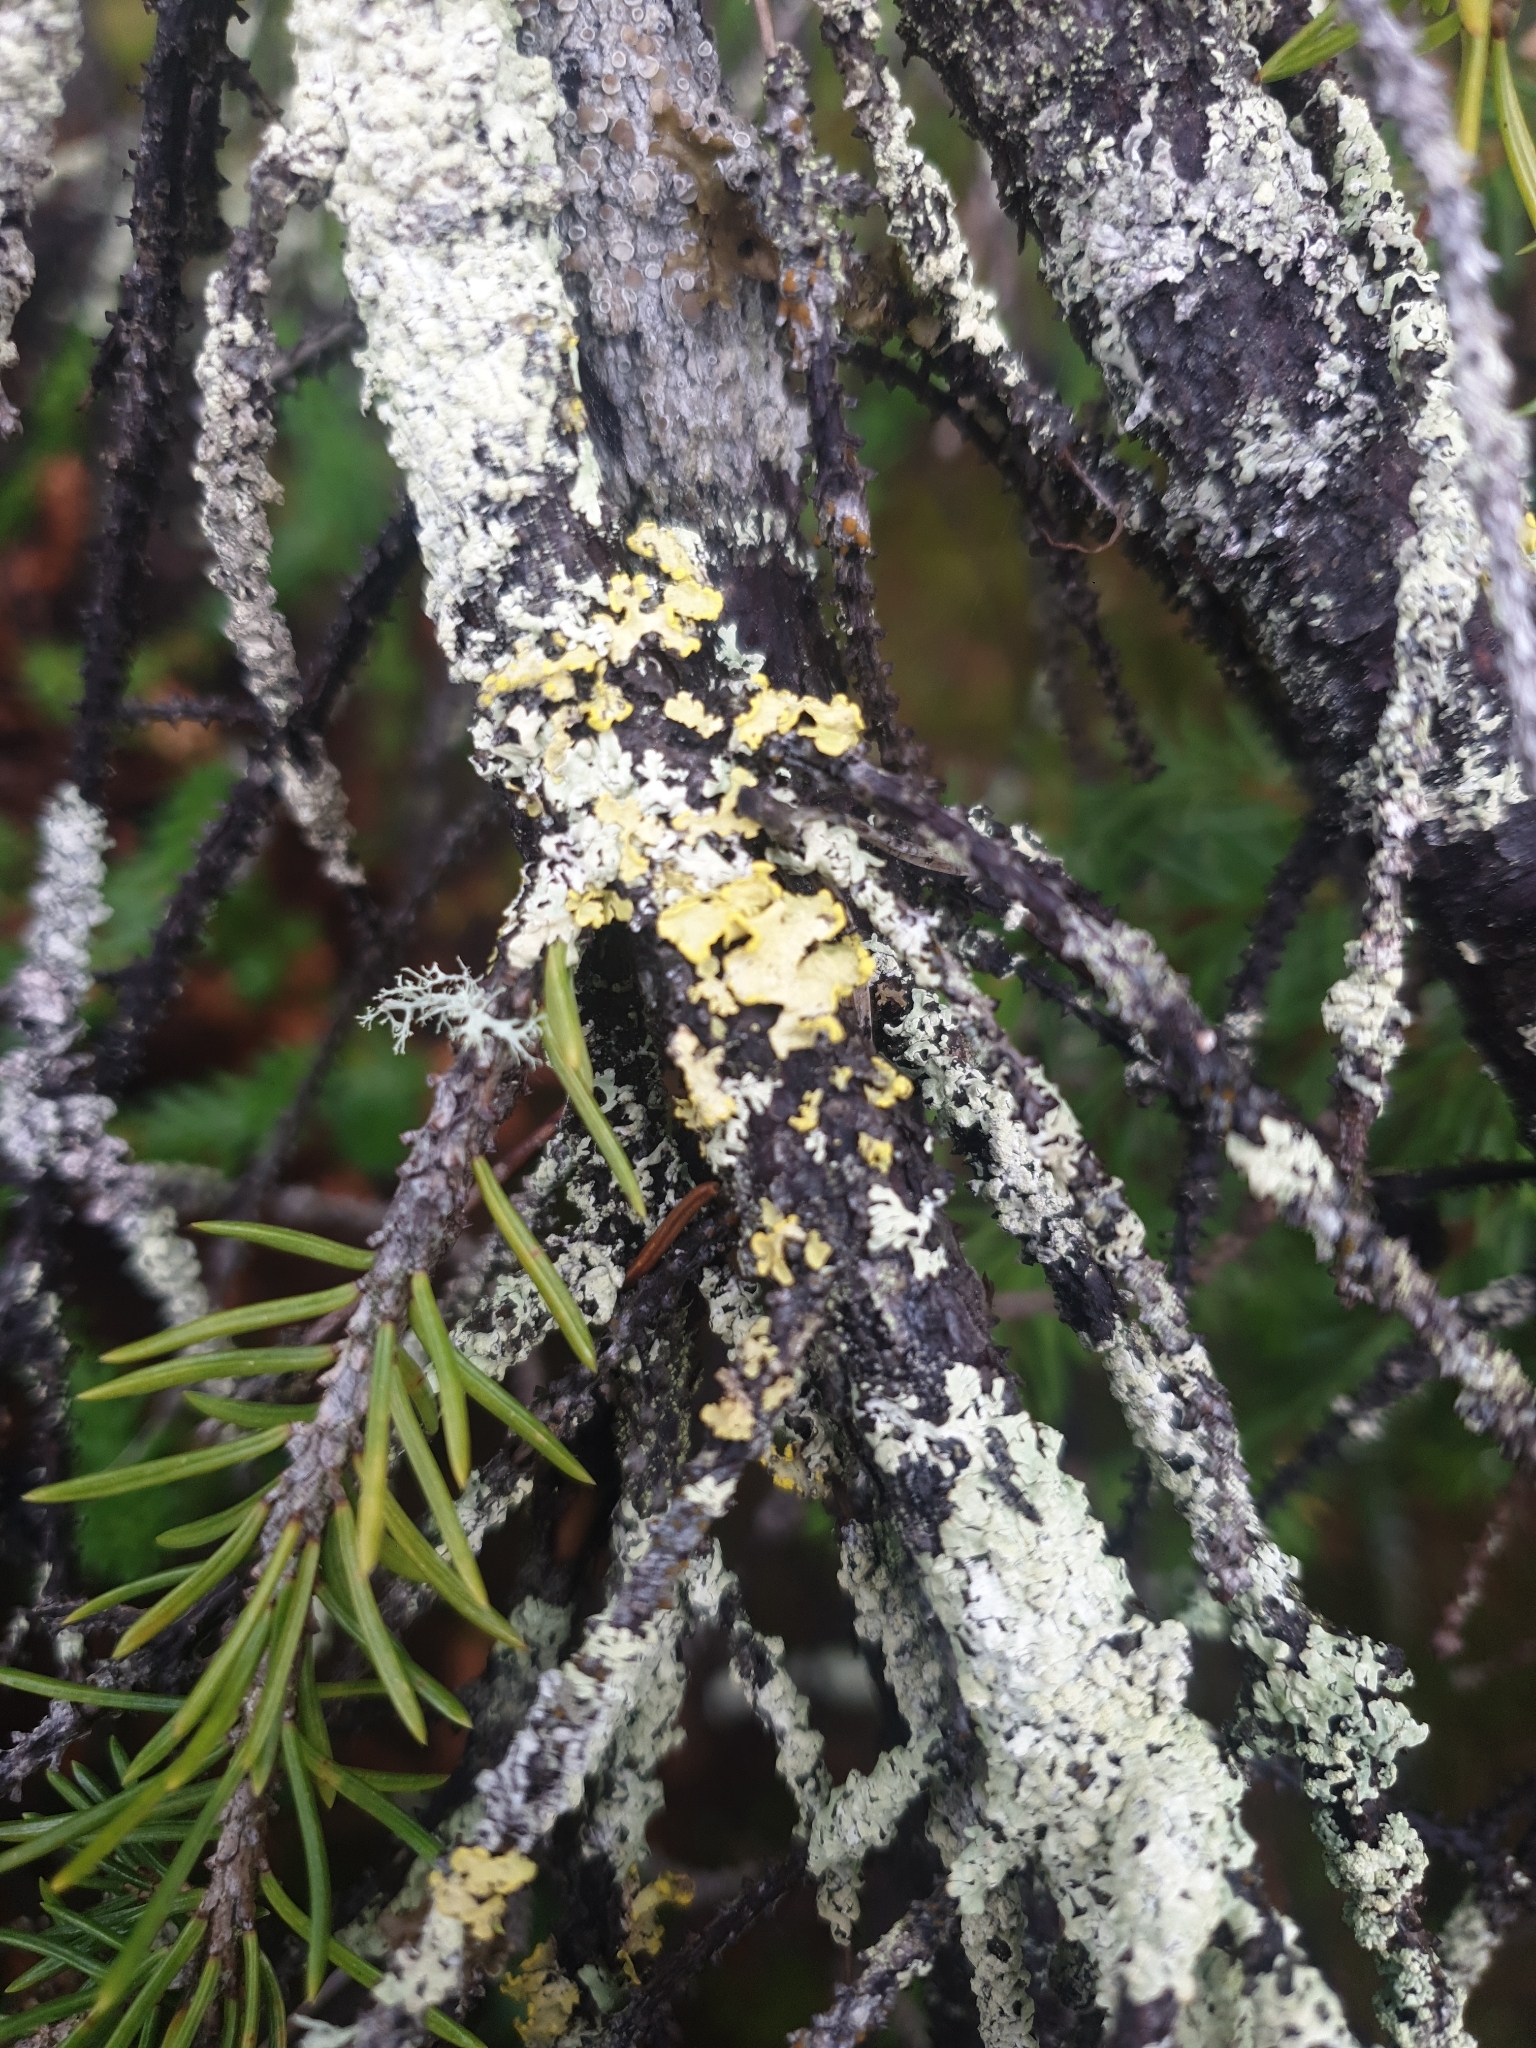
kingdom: Fungi
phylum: Ascomycota
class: Lecanoromycetes
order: Lecanorales
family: Parmeliaceae
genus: Vulpicida
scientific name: Vulpicida pinastri
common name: Powdered sunshine lichen
